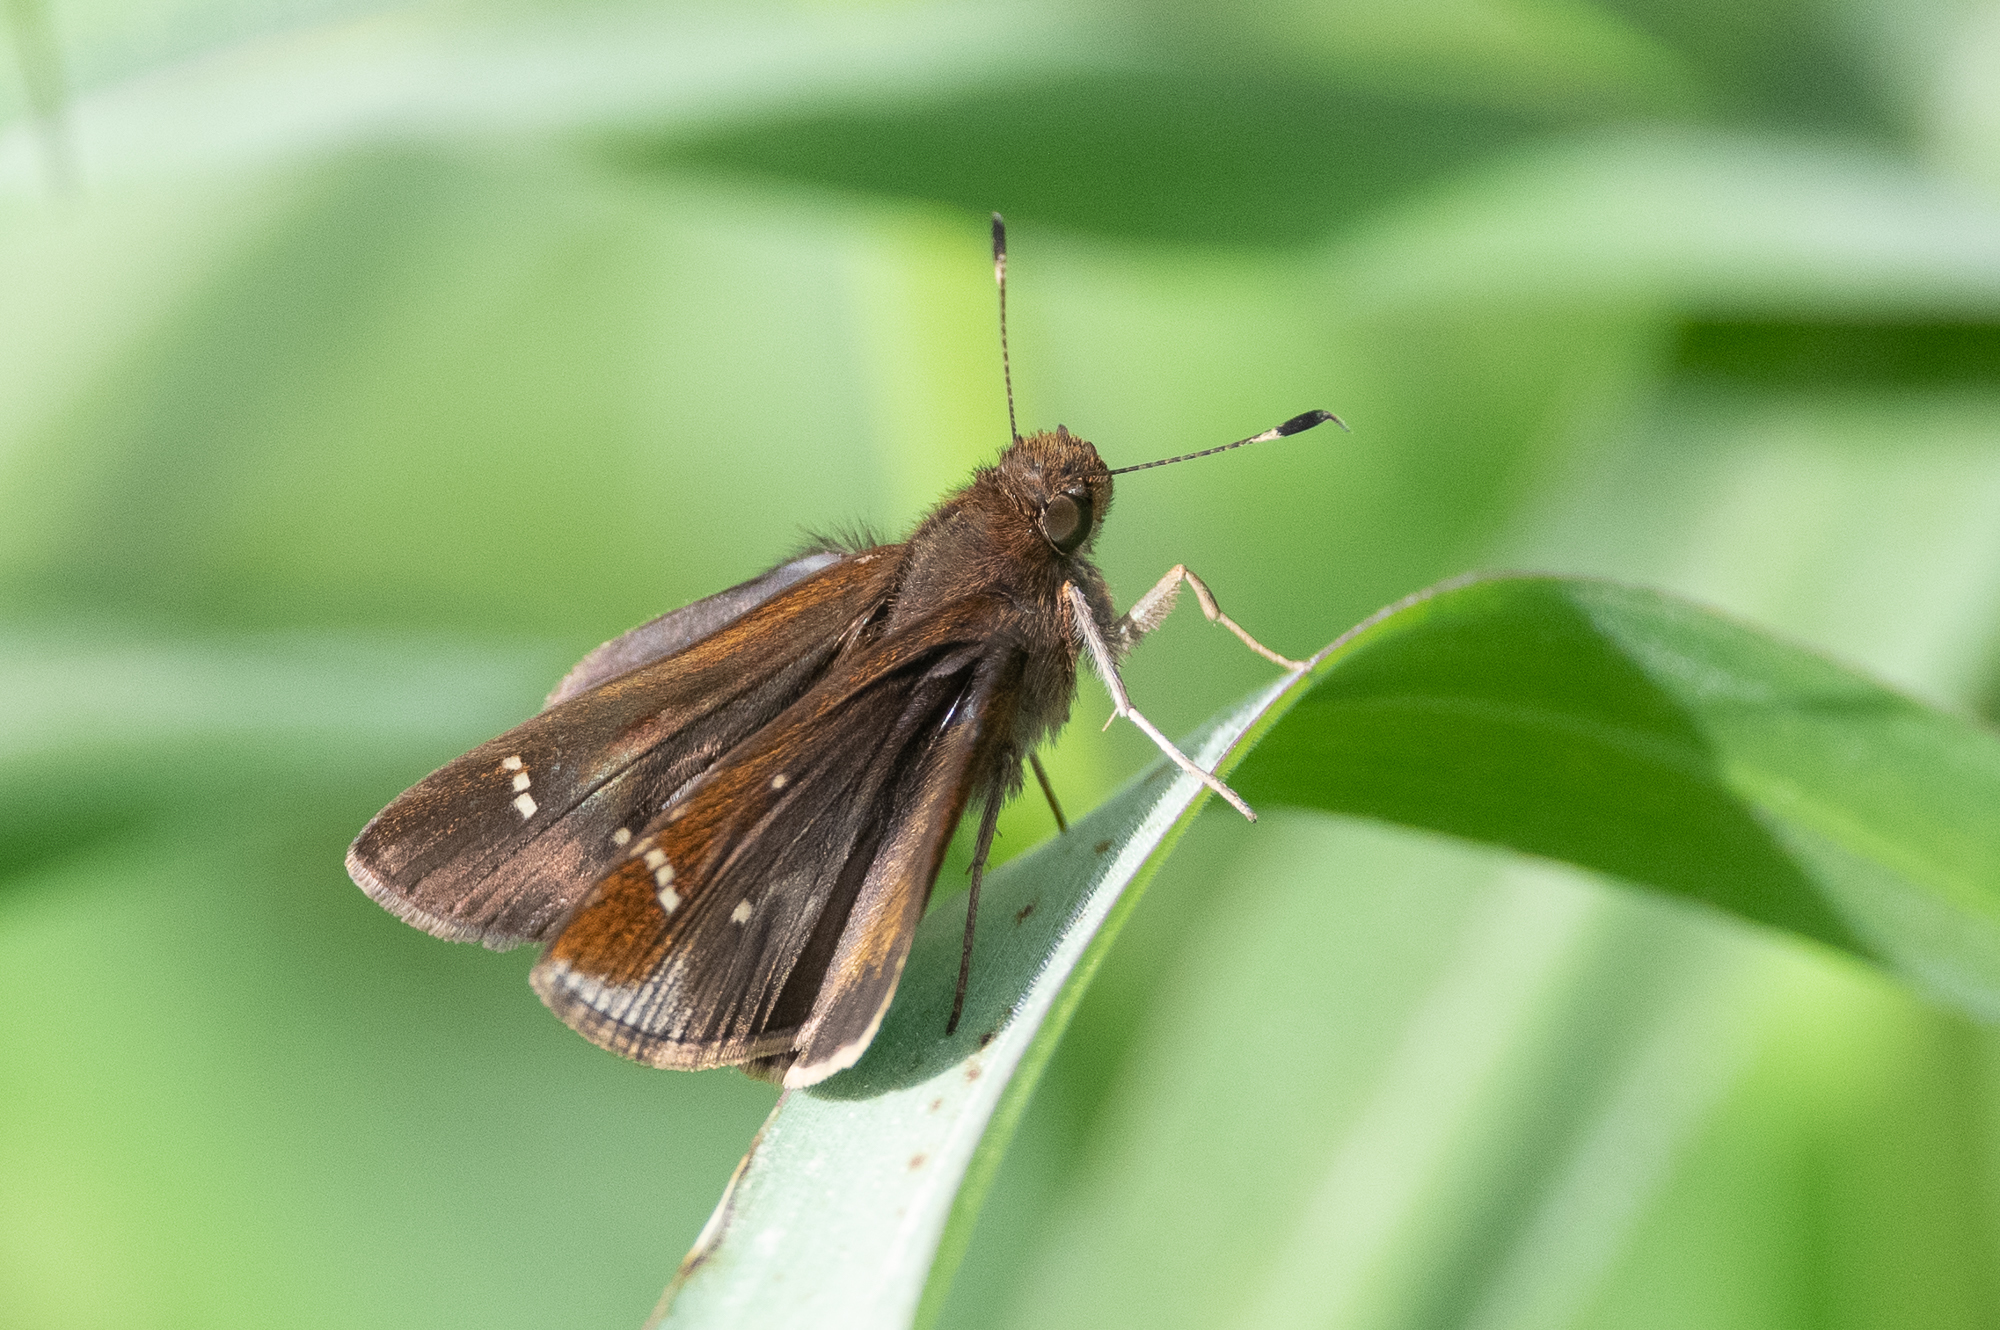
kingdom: Animalia
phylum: Arthropoda
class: Insecta
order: Lepidoptera
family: Hesperiidae
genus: Lerema
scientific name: Lerema accius
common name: Clouded skipper
